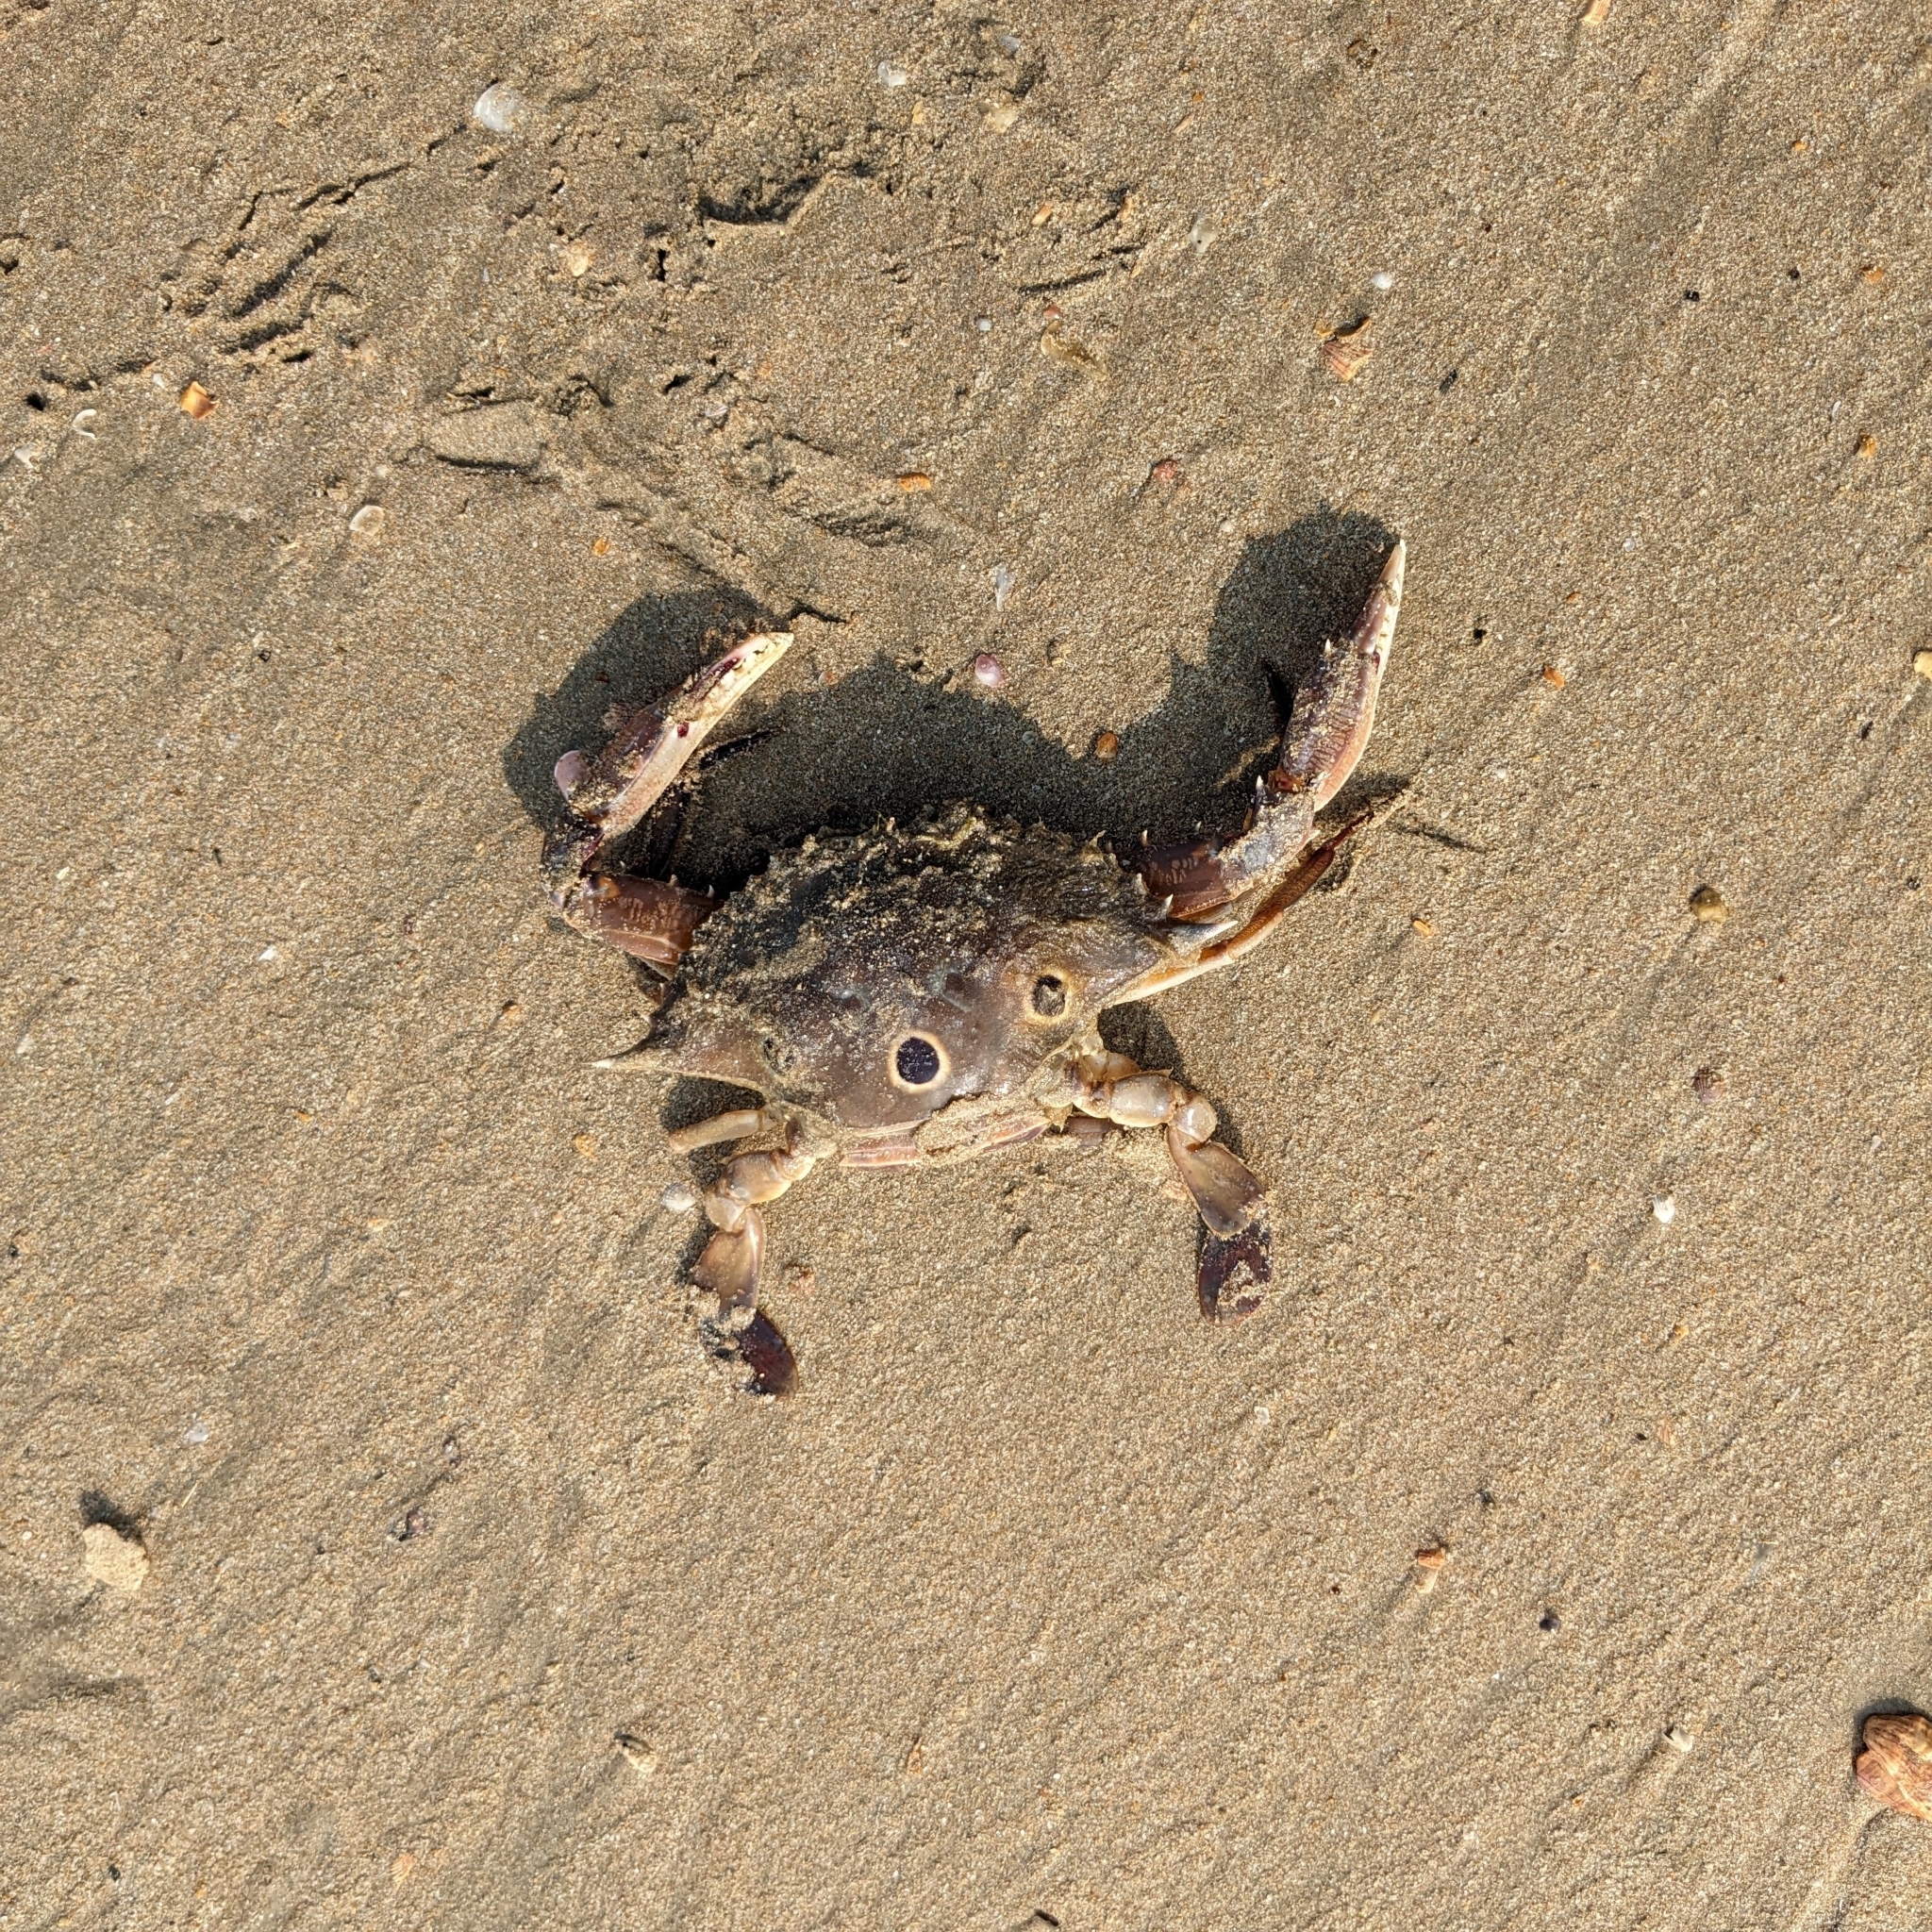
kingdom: Animalia
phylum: Arthropoda
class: Malacostraca
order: Decapoda
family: Portunidae
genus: Portunus
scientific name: Portunus sanguinolentus
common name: Blood-spotted swimming crab
